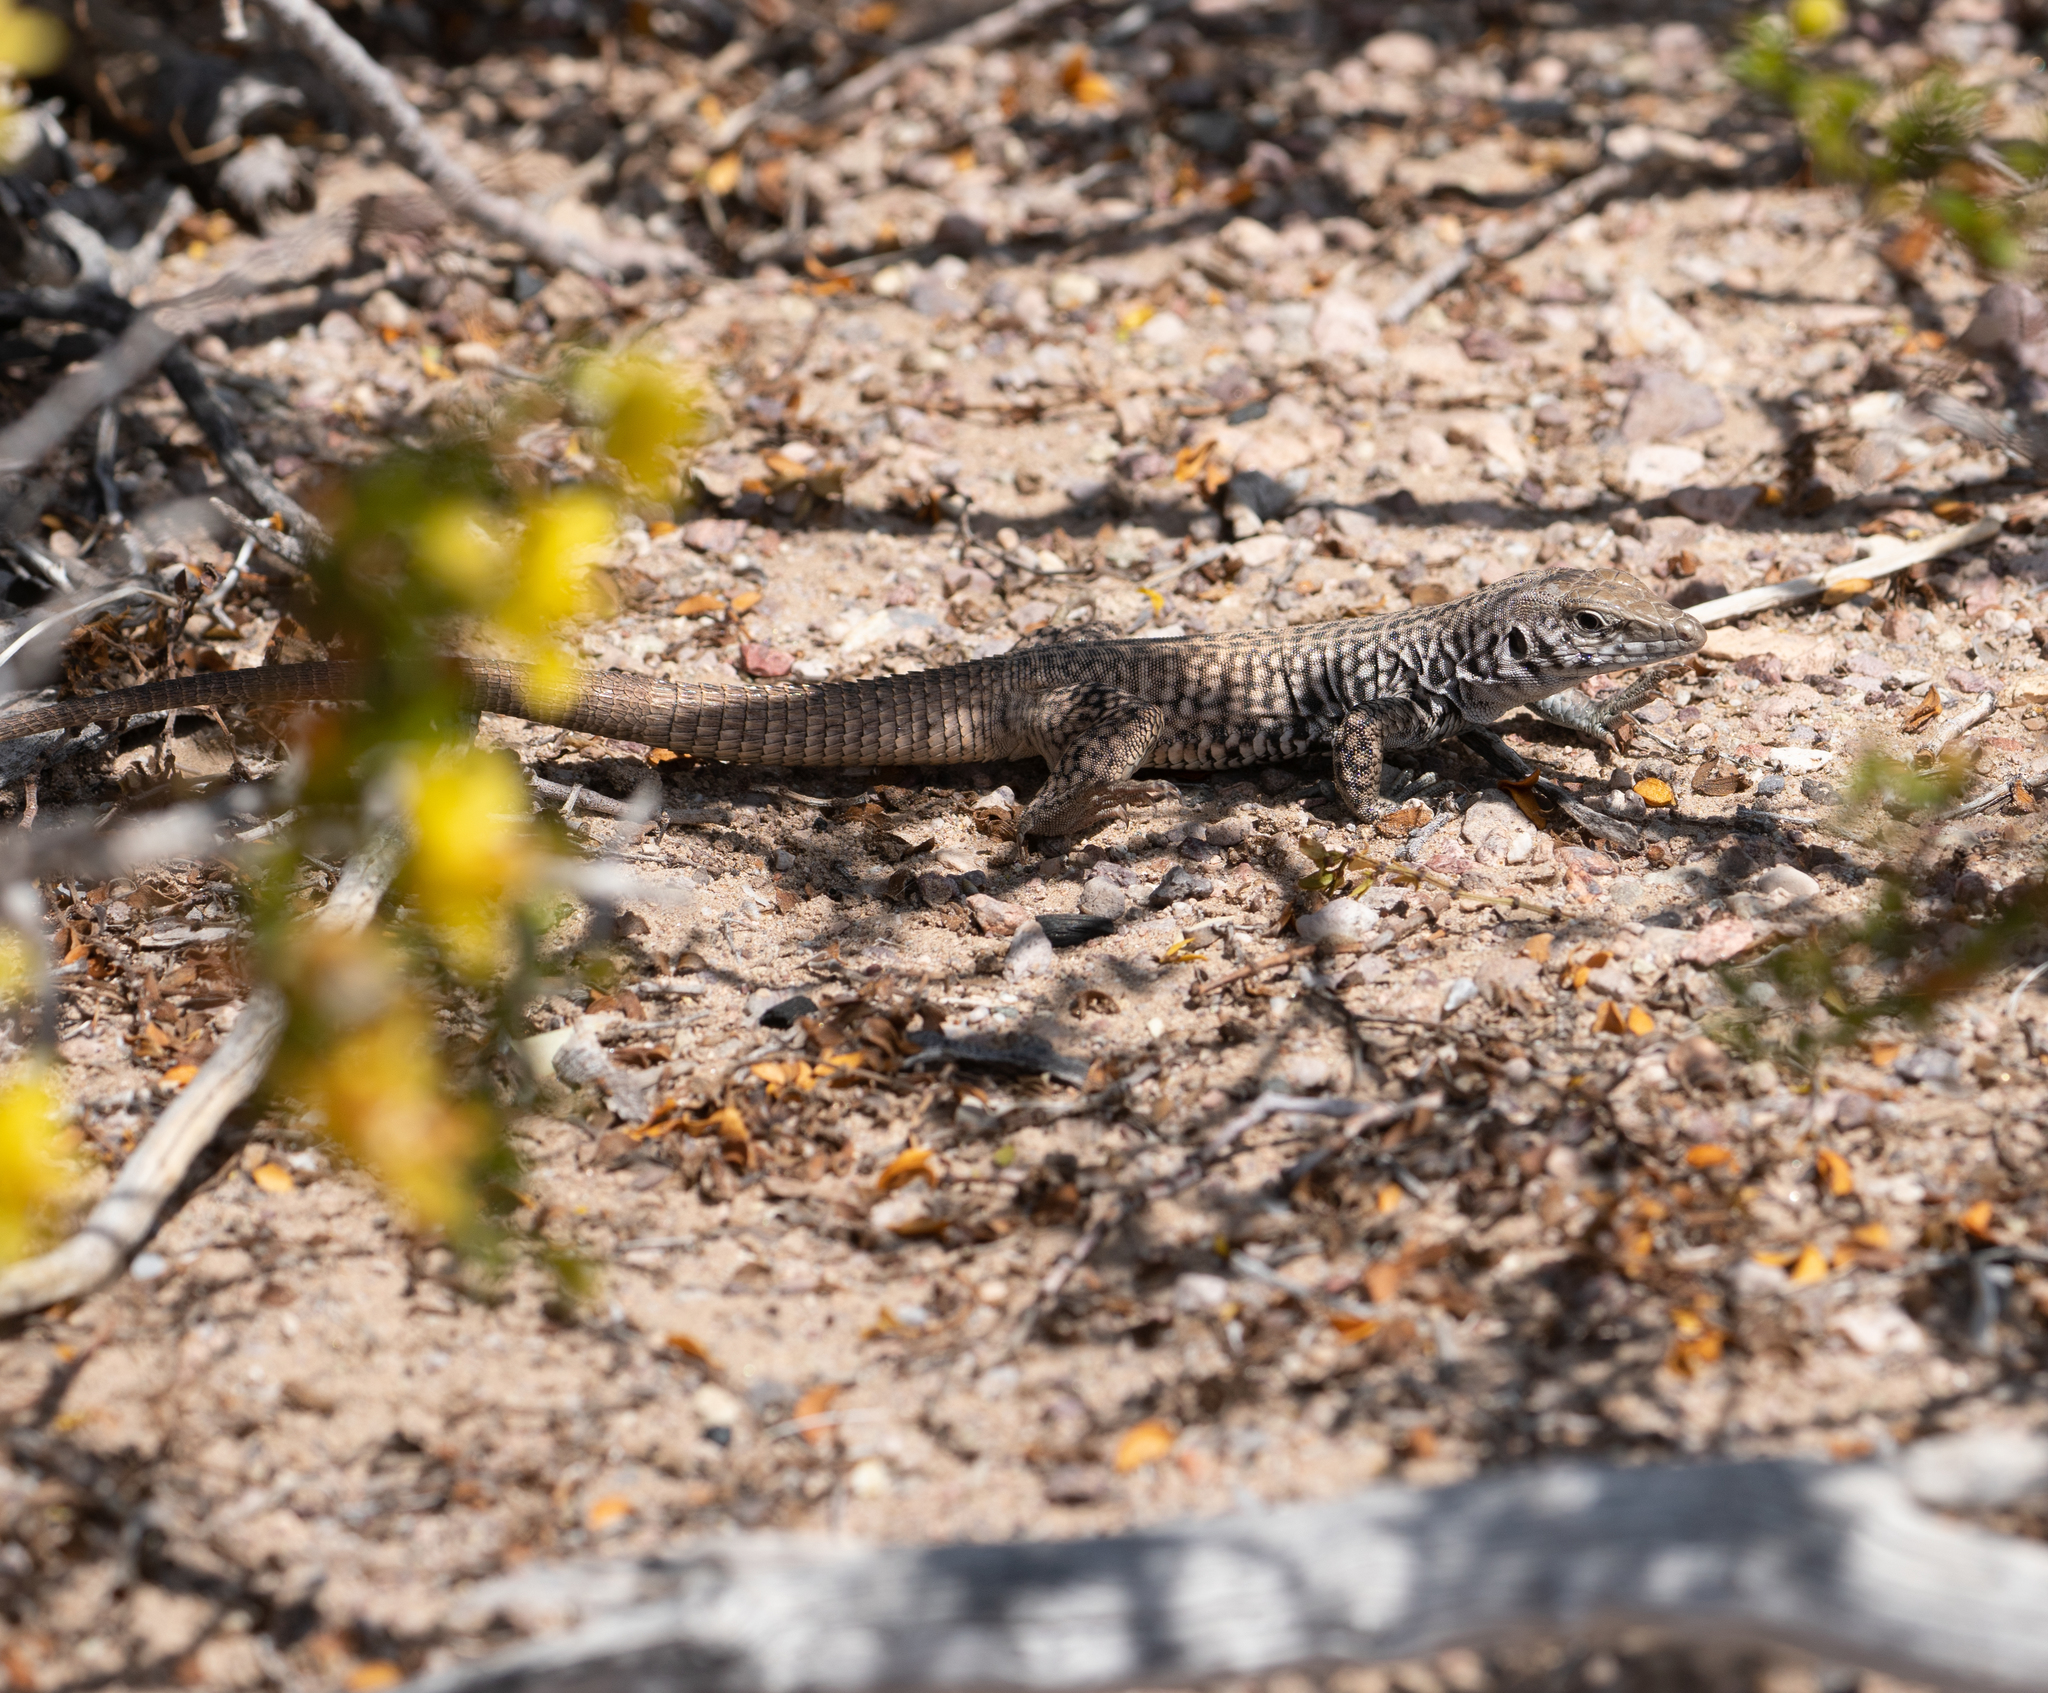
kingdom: Animalia
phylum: Chordata
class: Squamata
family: Teiidae
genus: Aspidoscelis
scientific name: Aspidoscelis tigris
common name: Tiger whiptail
